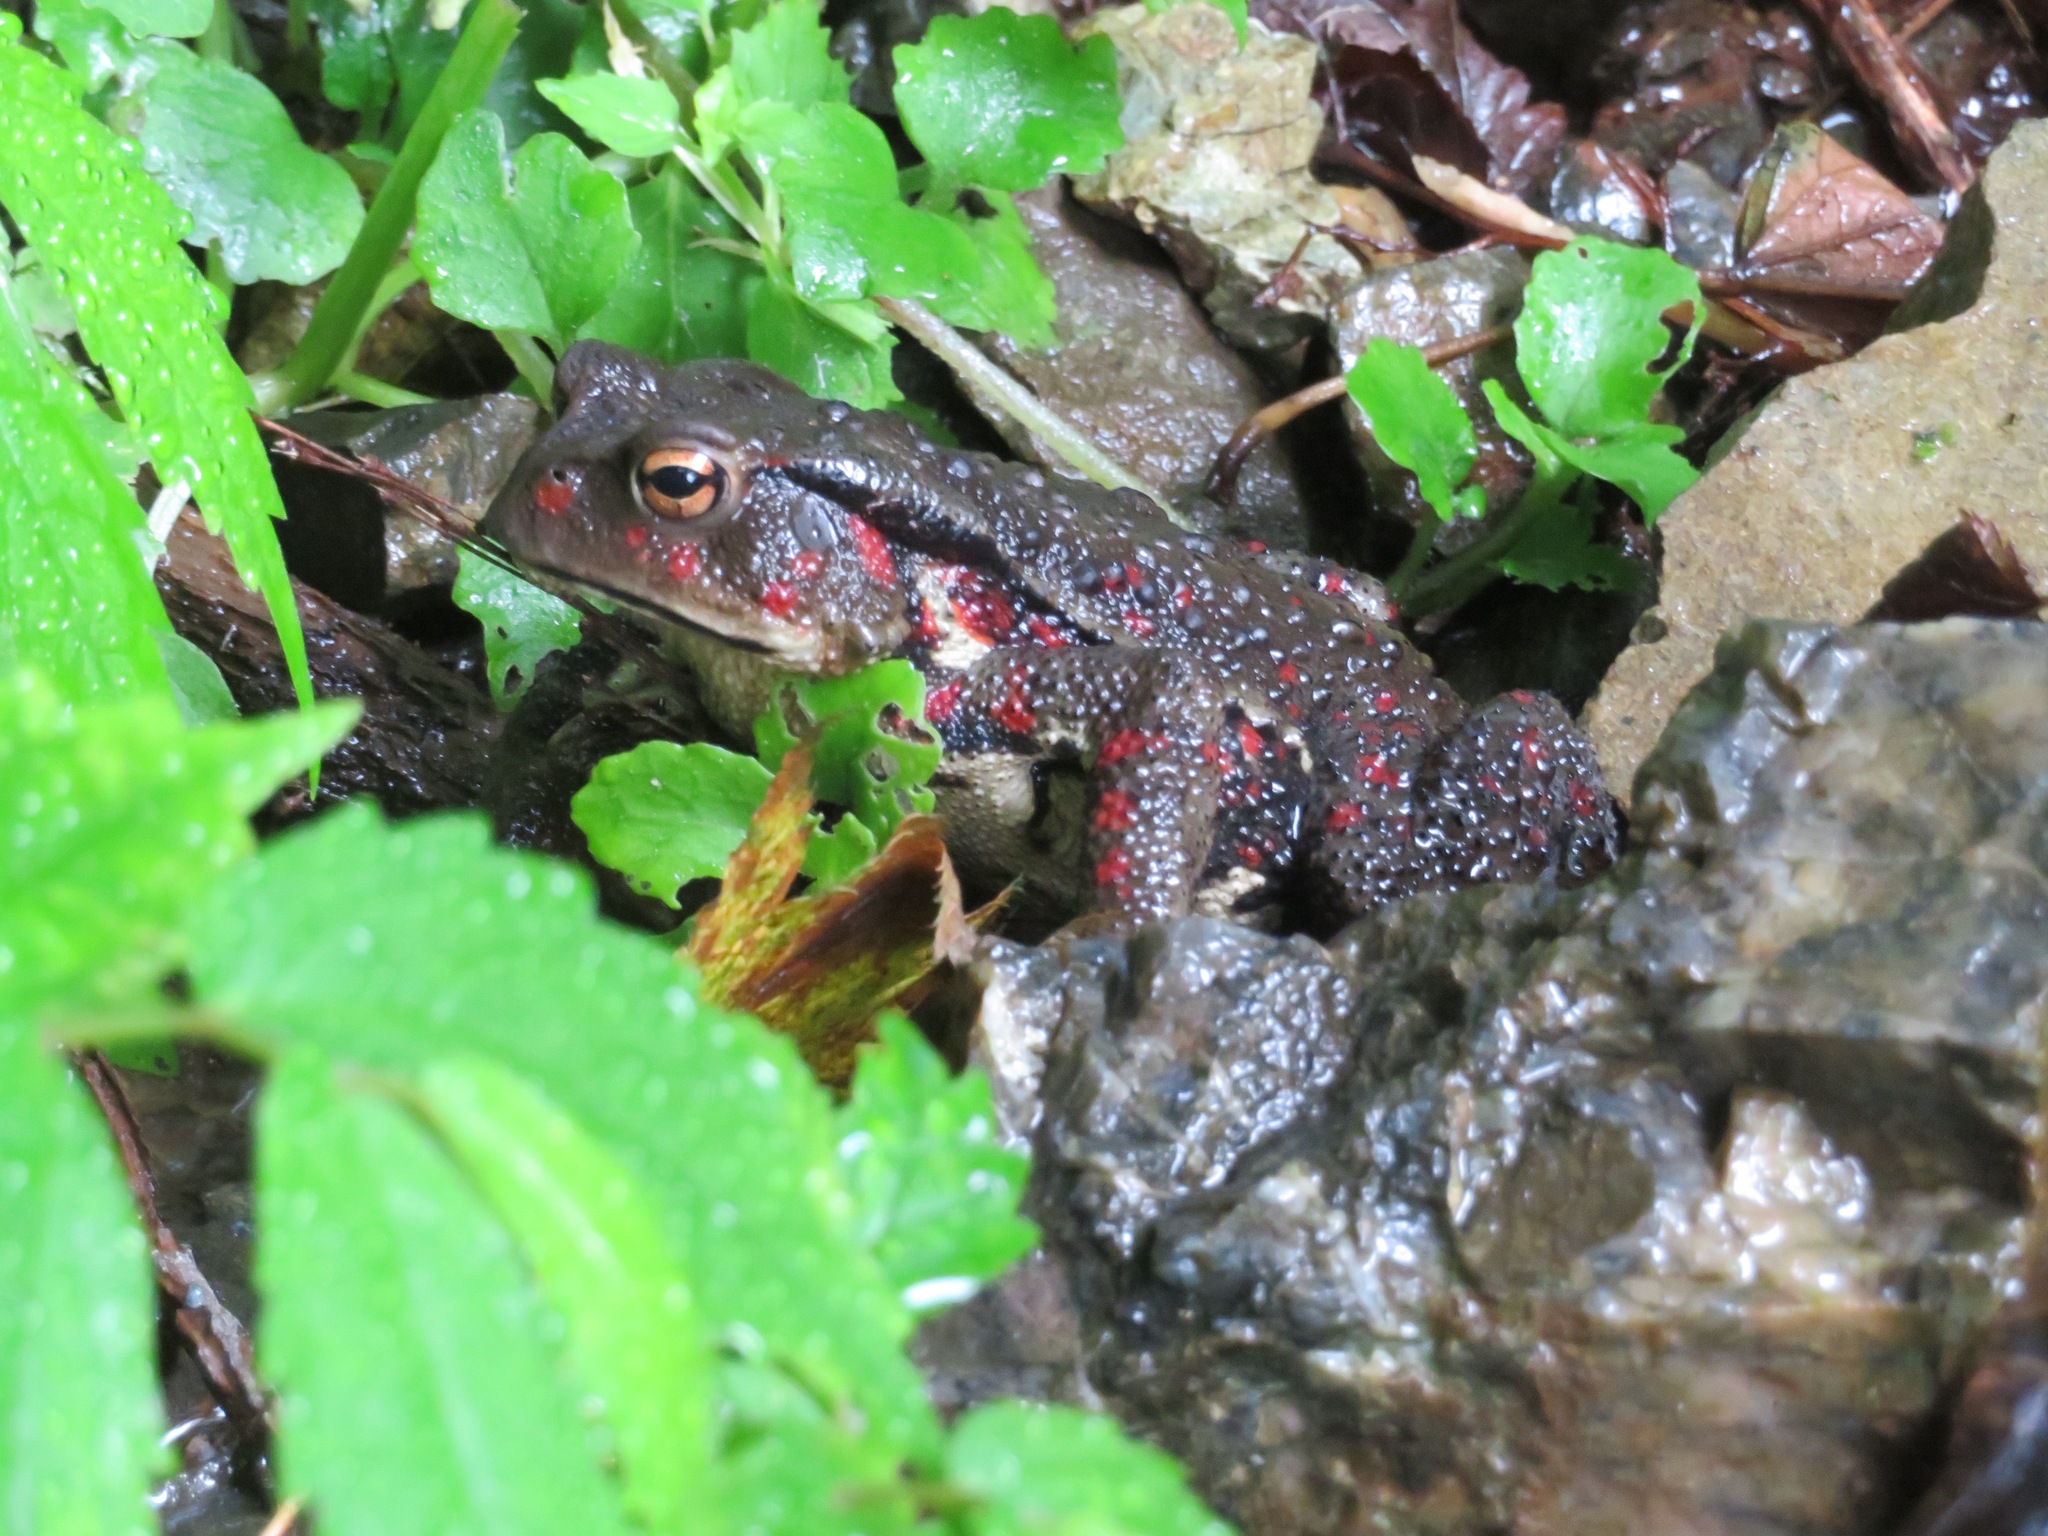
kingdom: Animalia
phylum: Chordata
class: Amphibia
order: Anura
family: Bufonidae
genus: Bufo
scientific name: Bufo japonicus
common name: Japanese common toad
